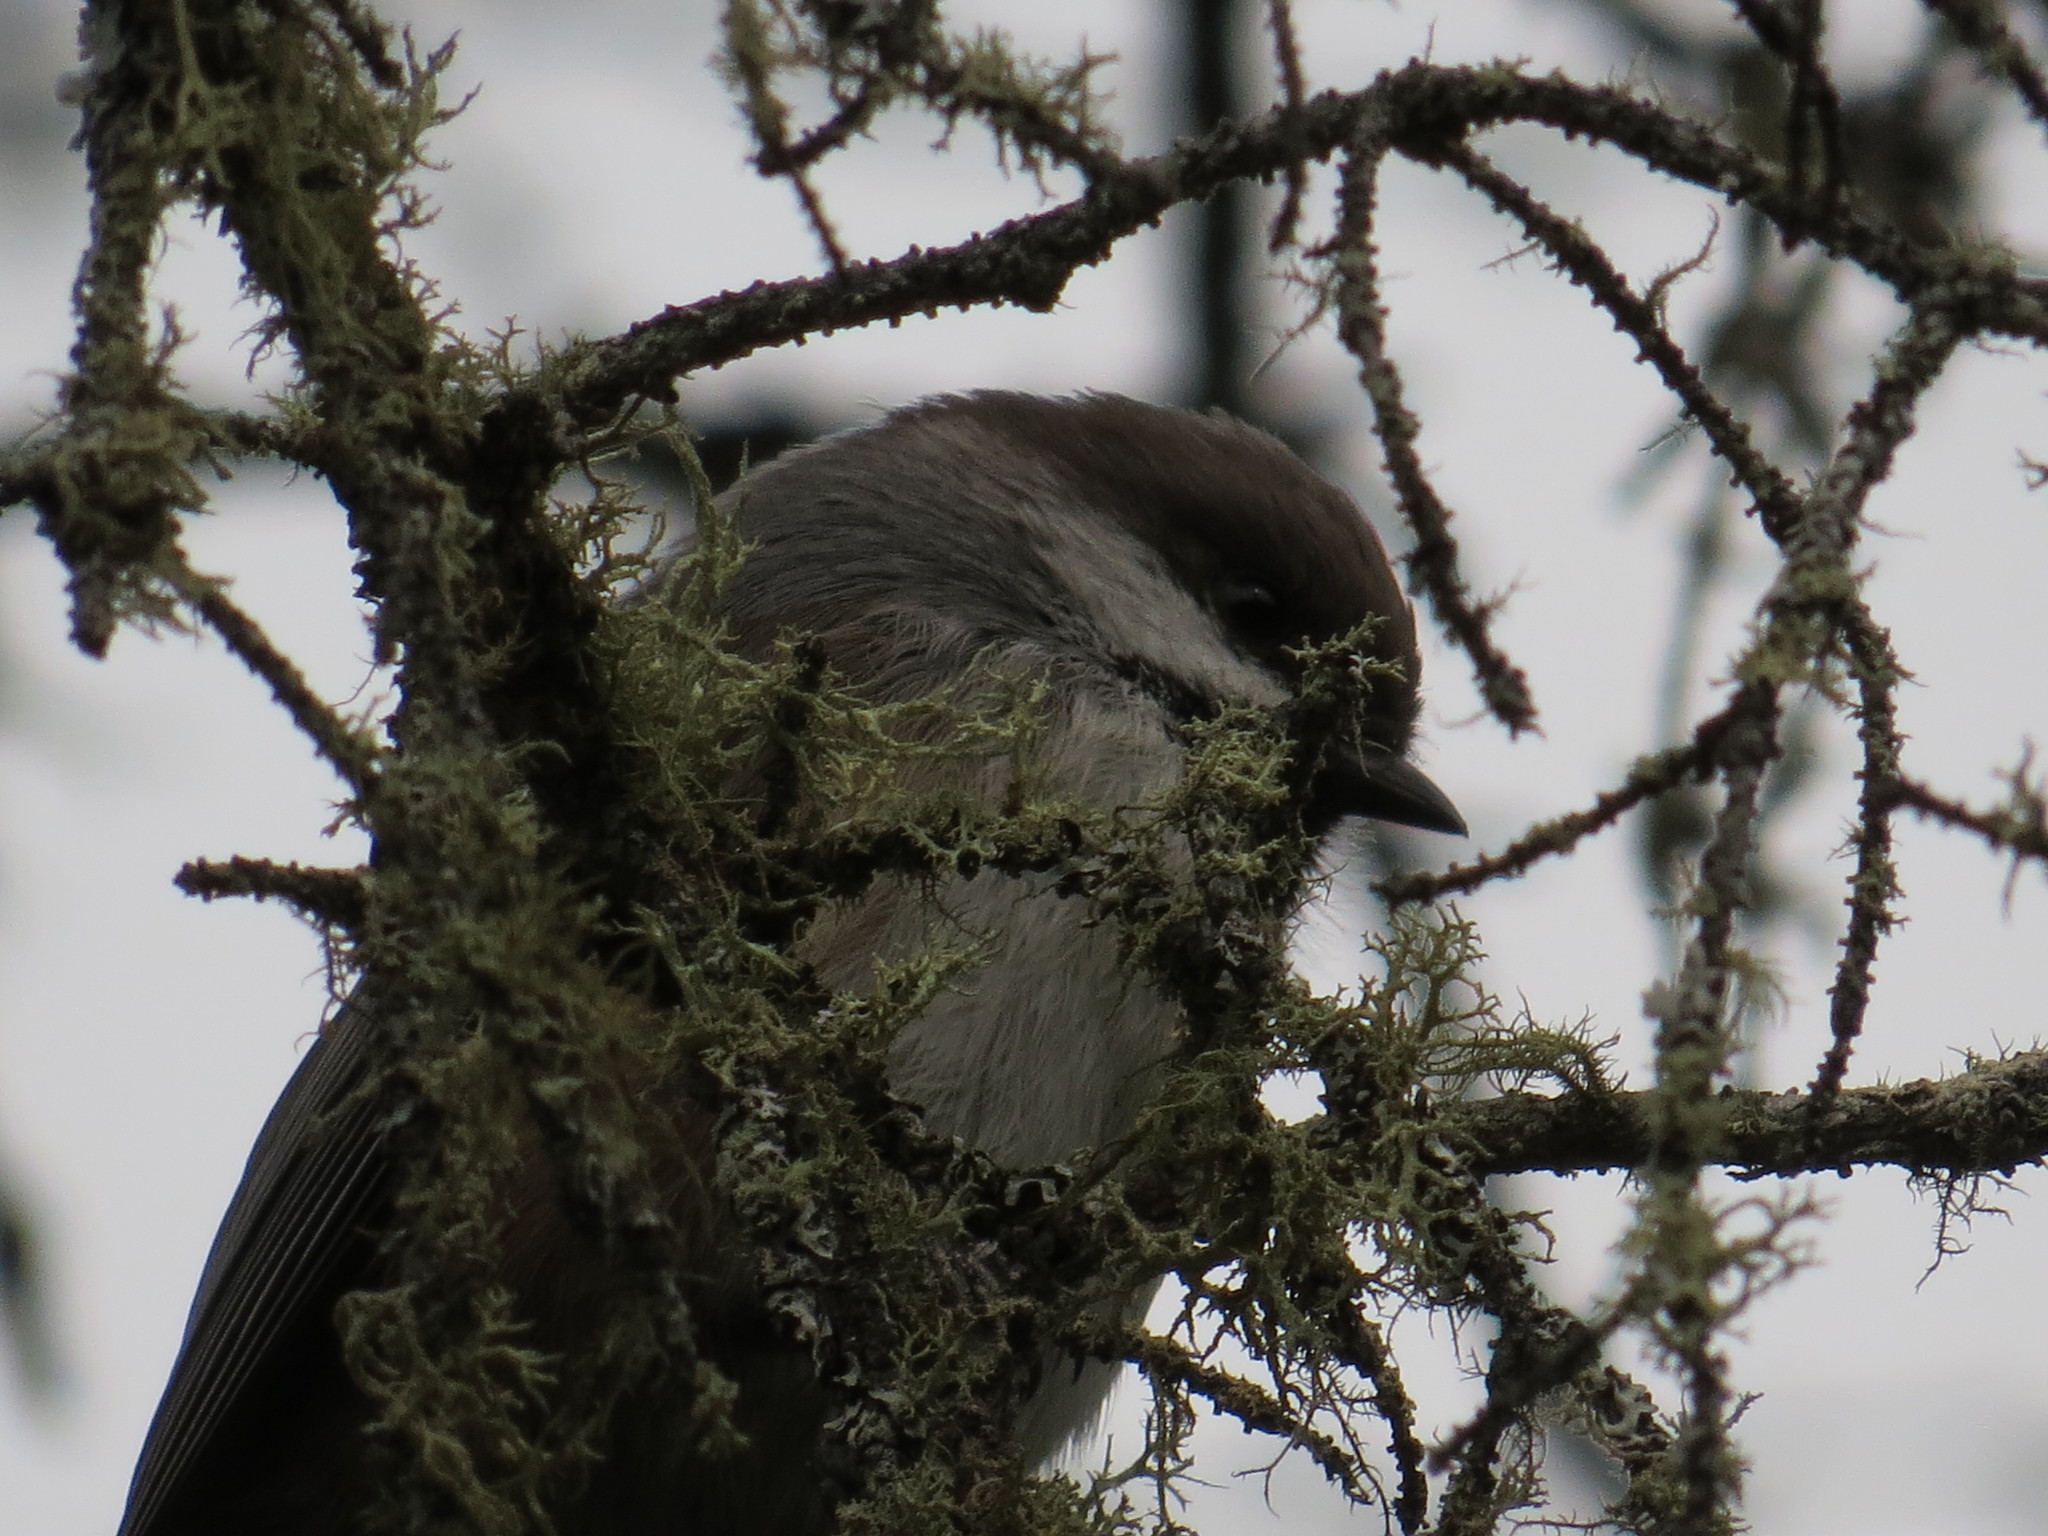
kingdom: Animalia
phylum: Chordata
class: Aves
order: Passeriformes
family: Paridae
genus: Poecile
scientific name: Poecile hudsonicus
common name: Boreal chickadee
